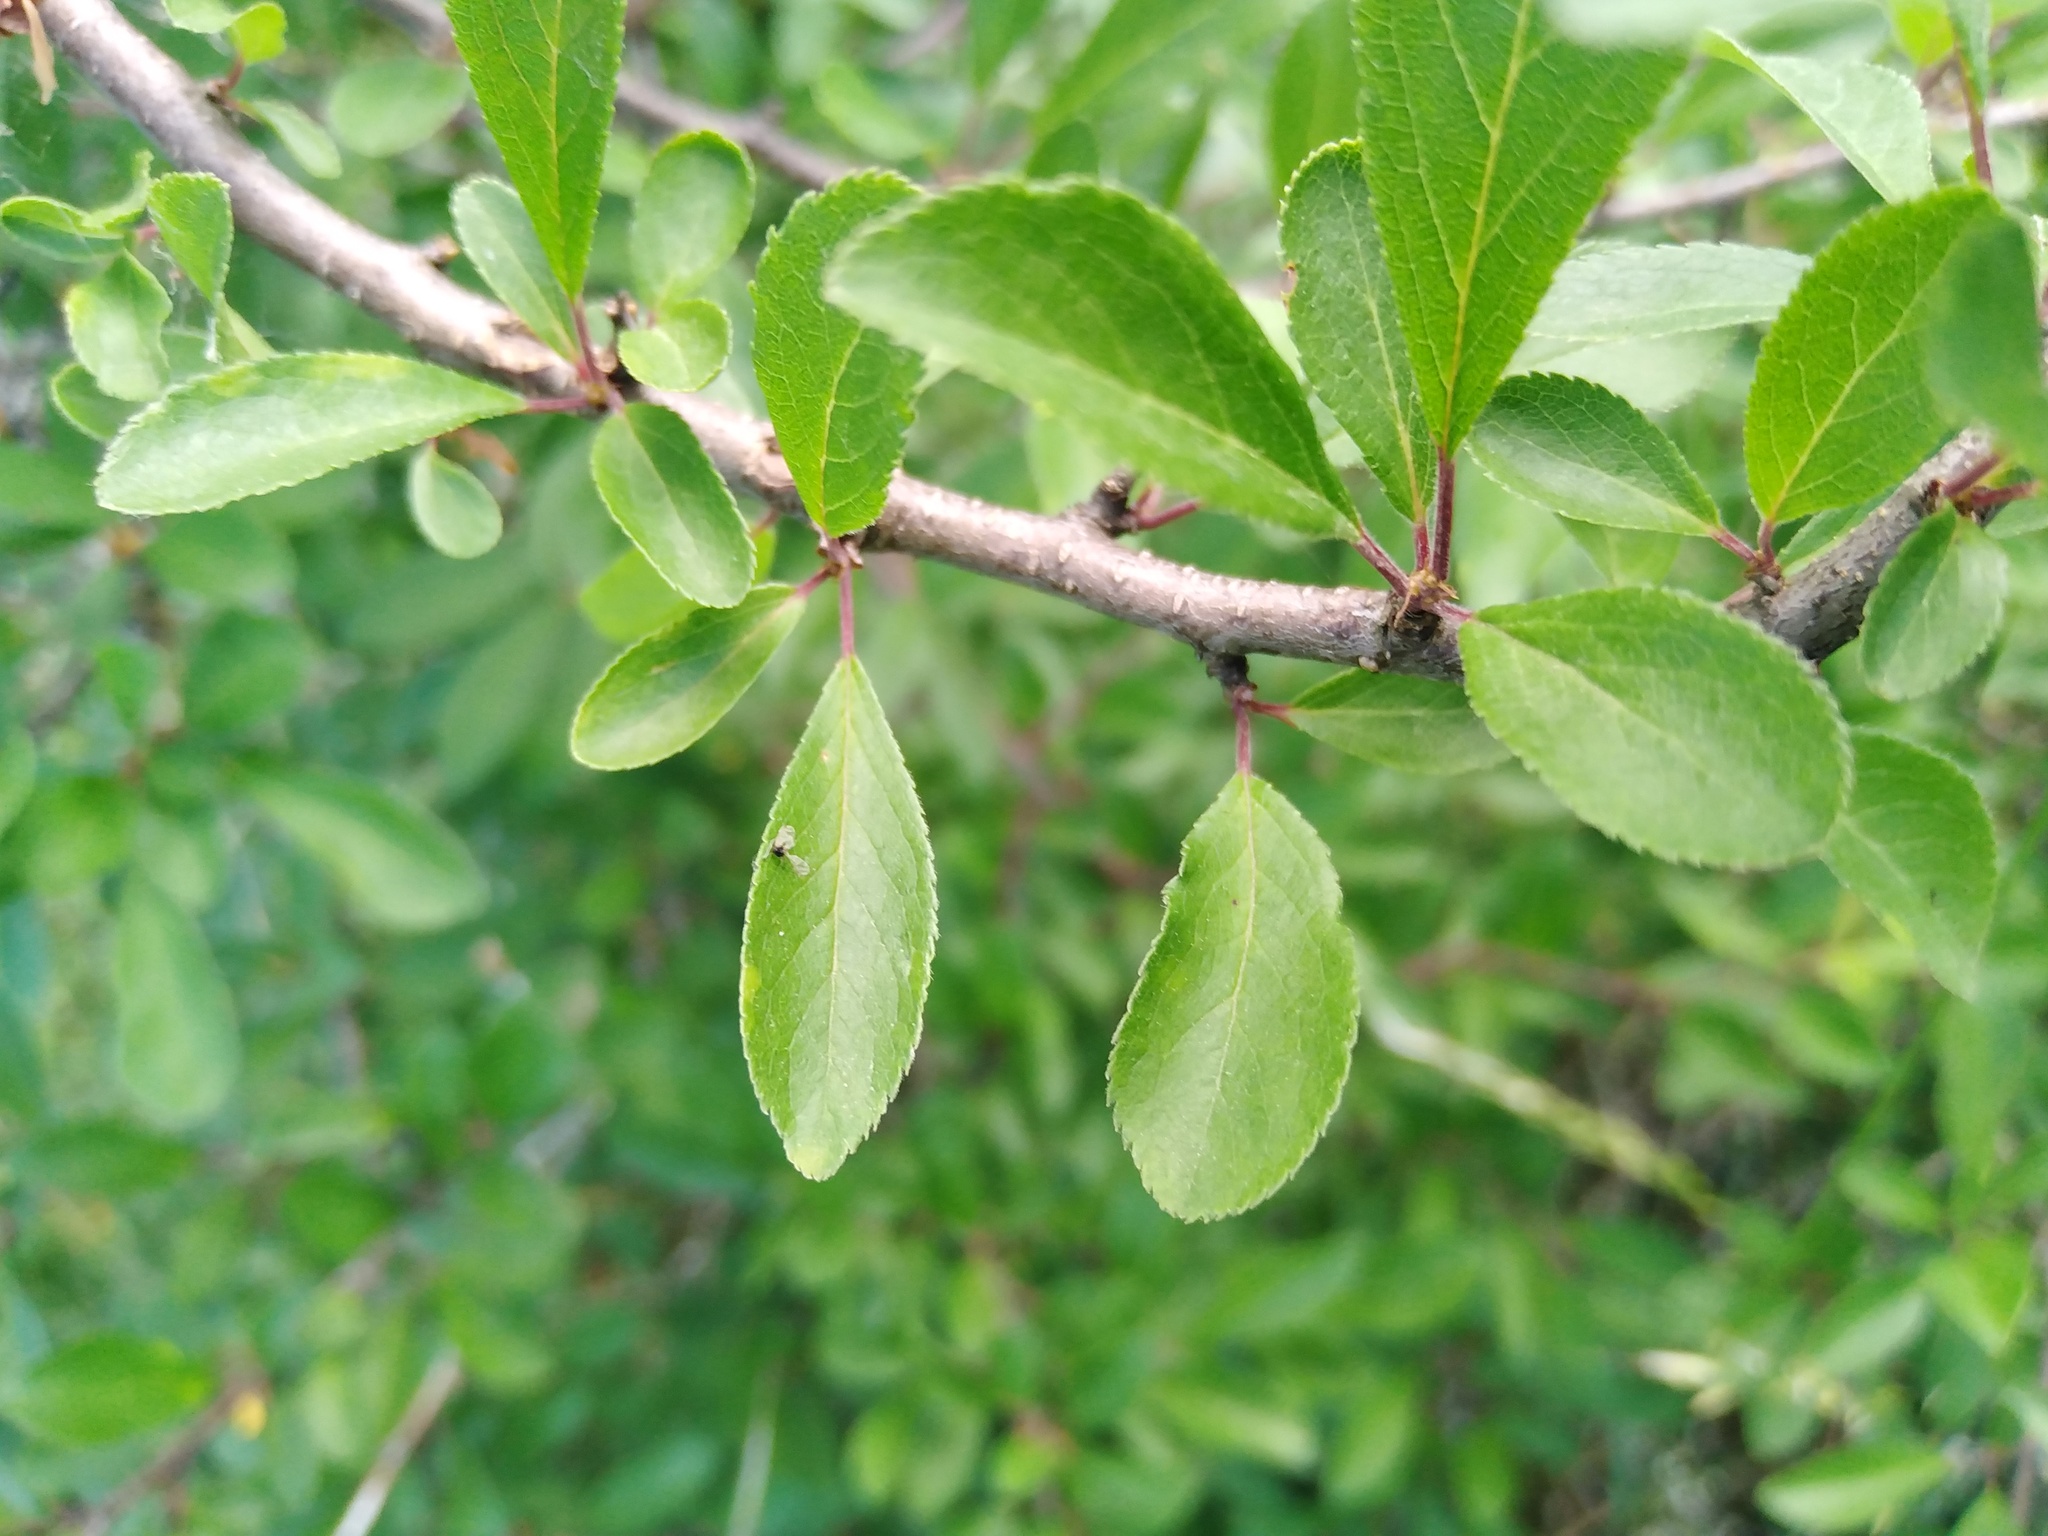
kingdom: Plantae
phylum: Tracheophyta
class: Magnoliopsida
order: Rosales
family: Rosaceae
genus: Prunus
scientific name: Prunus spinosa
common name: Blackthorn
